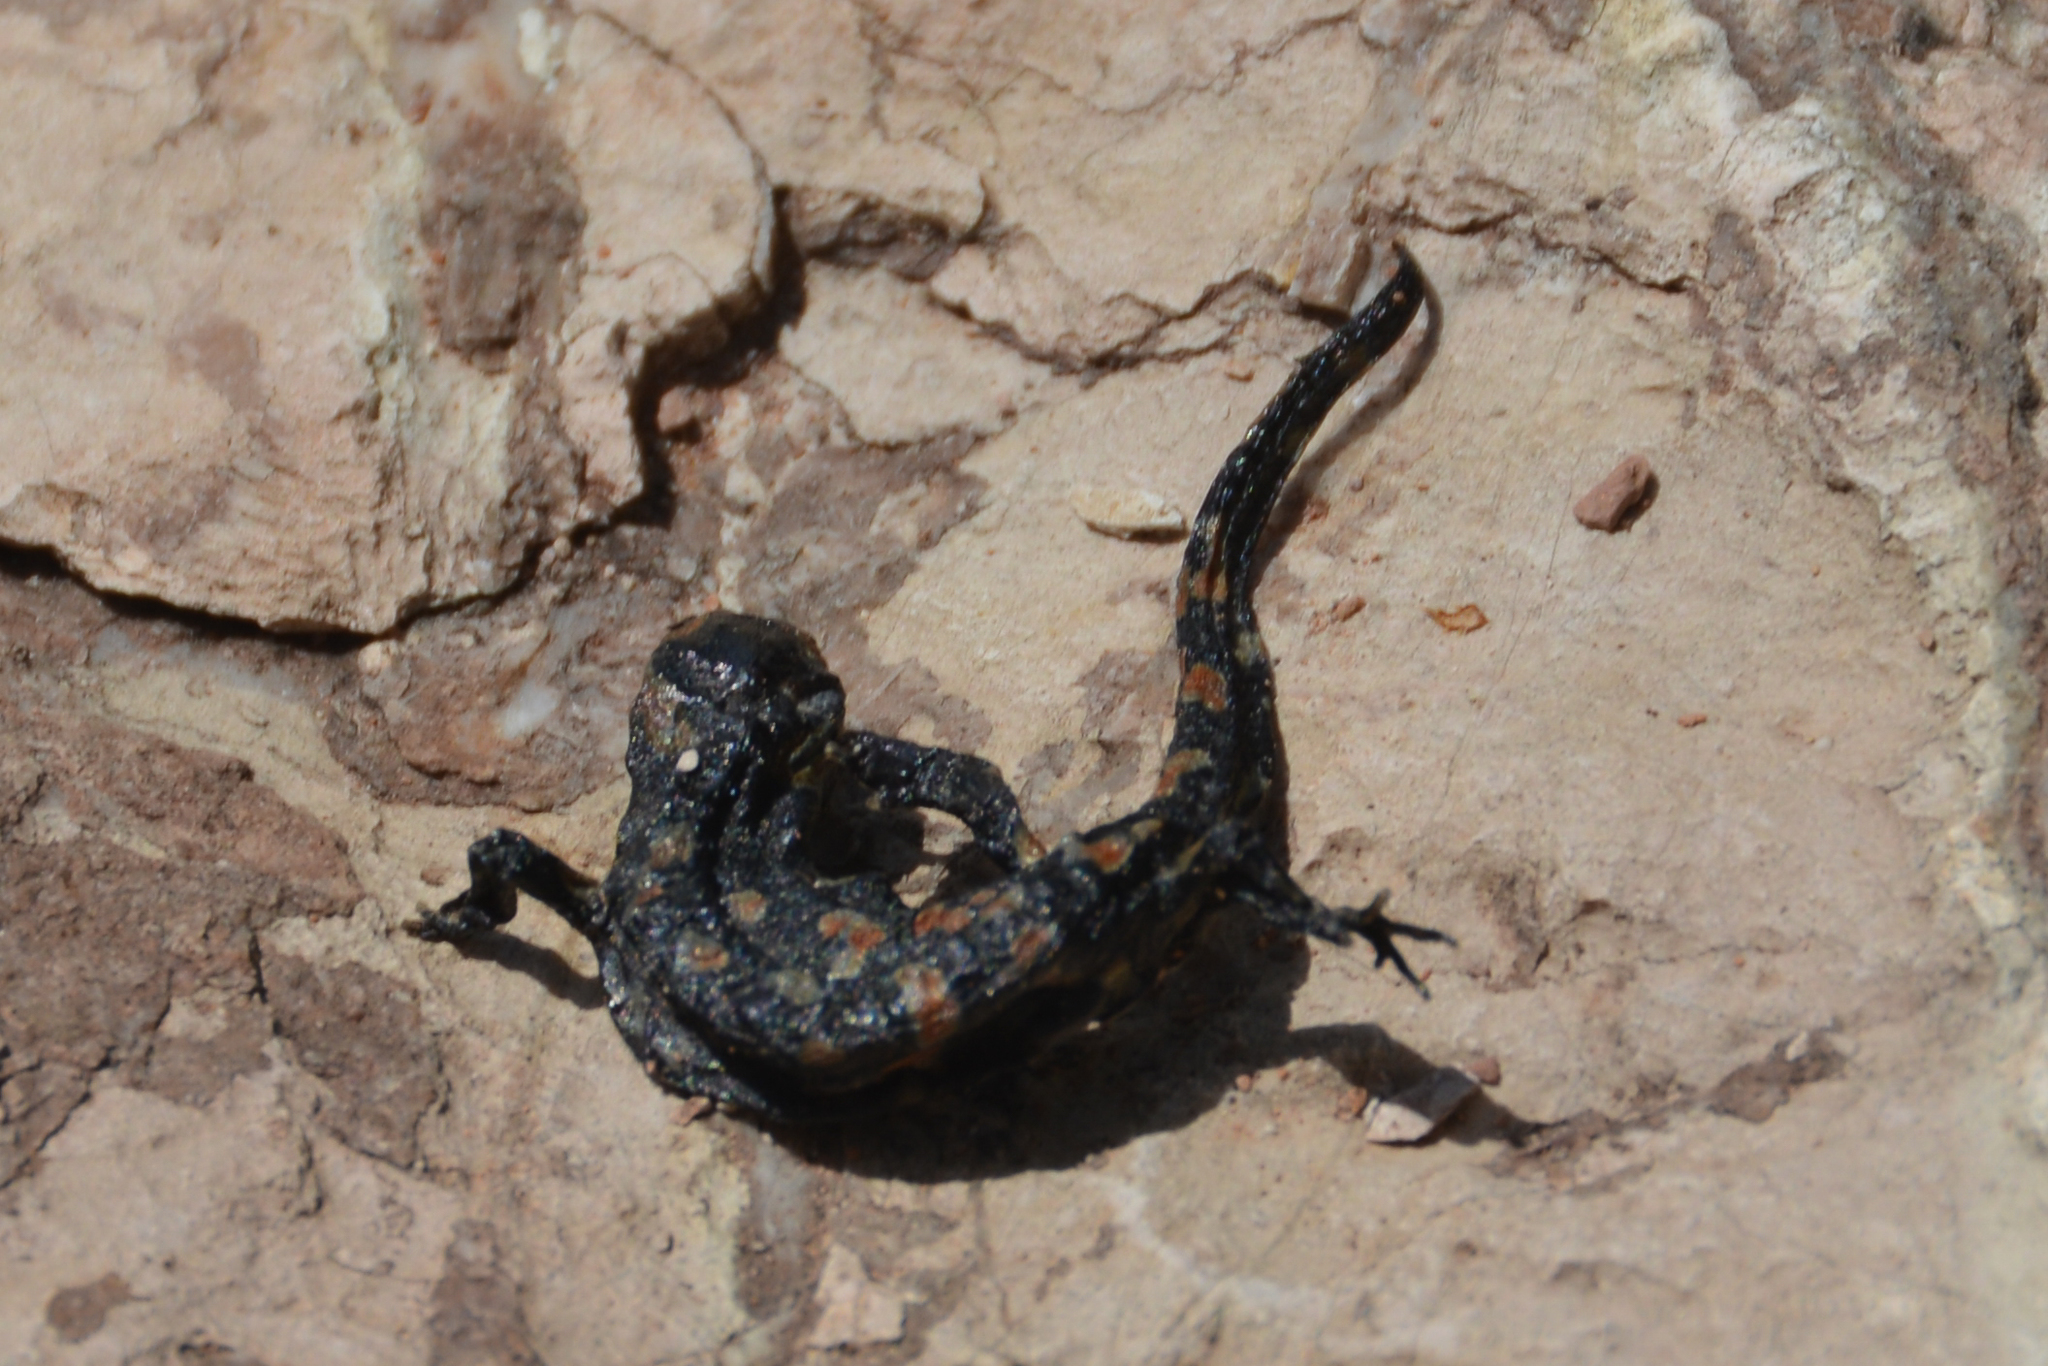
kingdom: Animalia
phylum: Chordata
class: Amphibia
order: Caudata
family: Salamandridae
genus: Salamandra
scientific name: Salamandra longirostris
